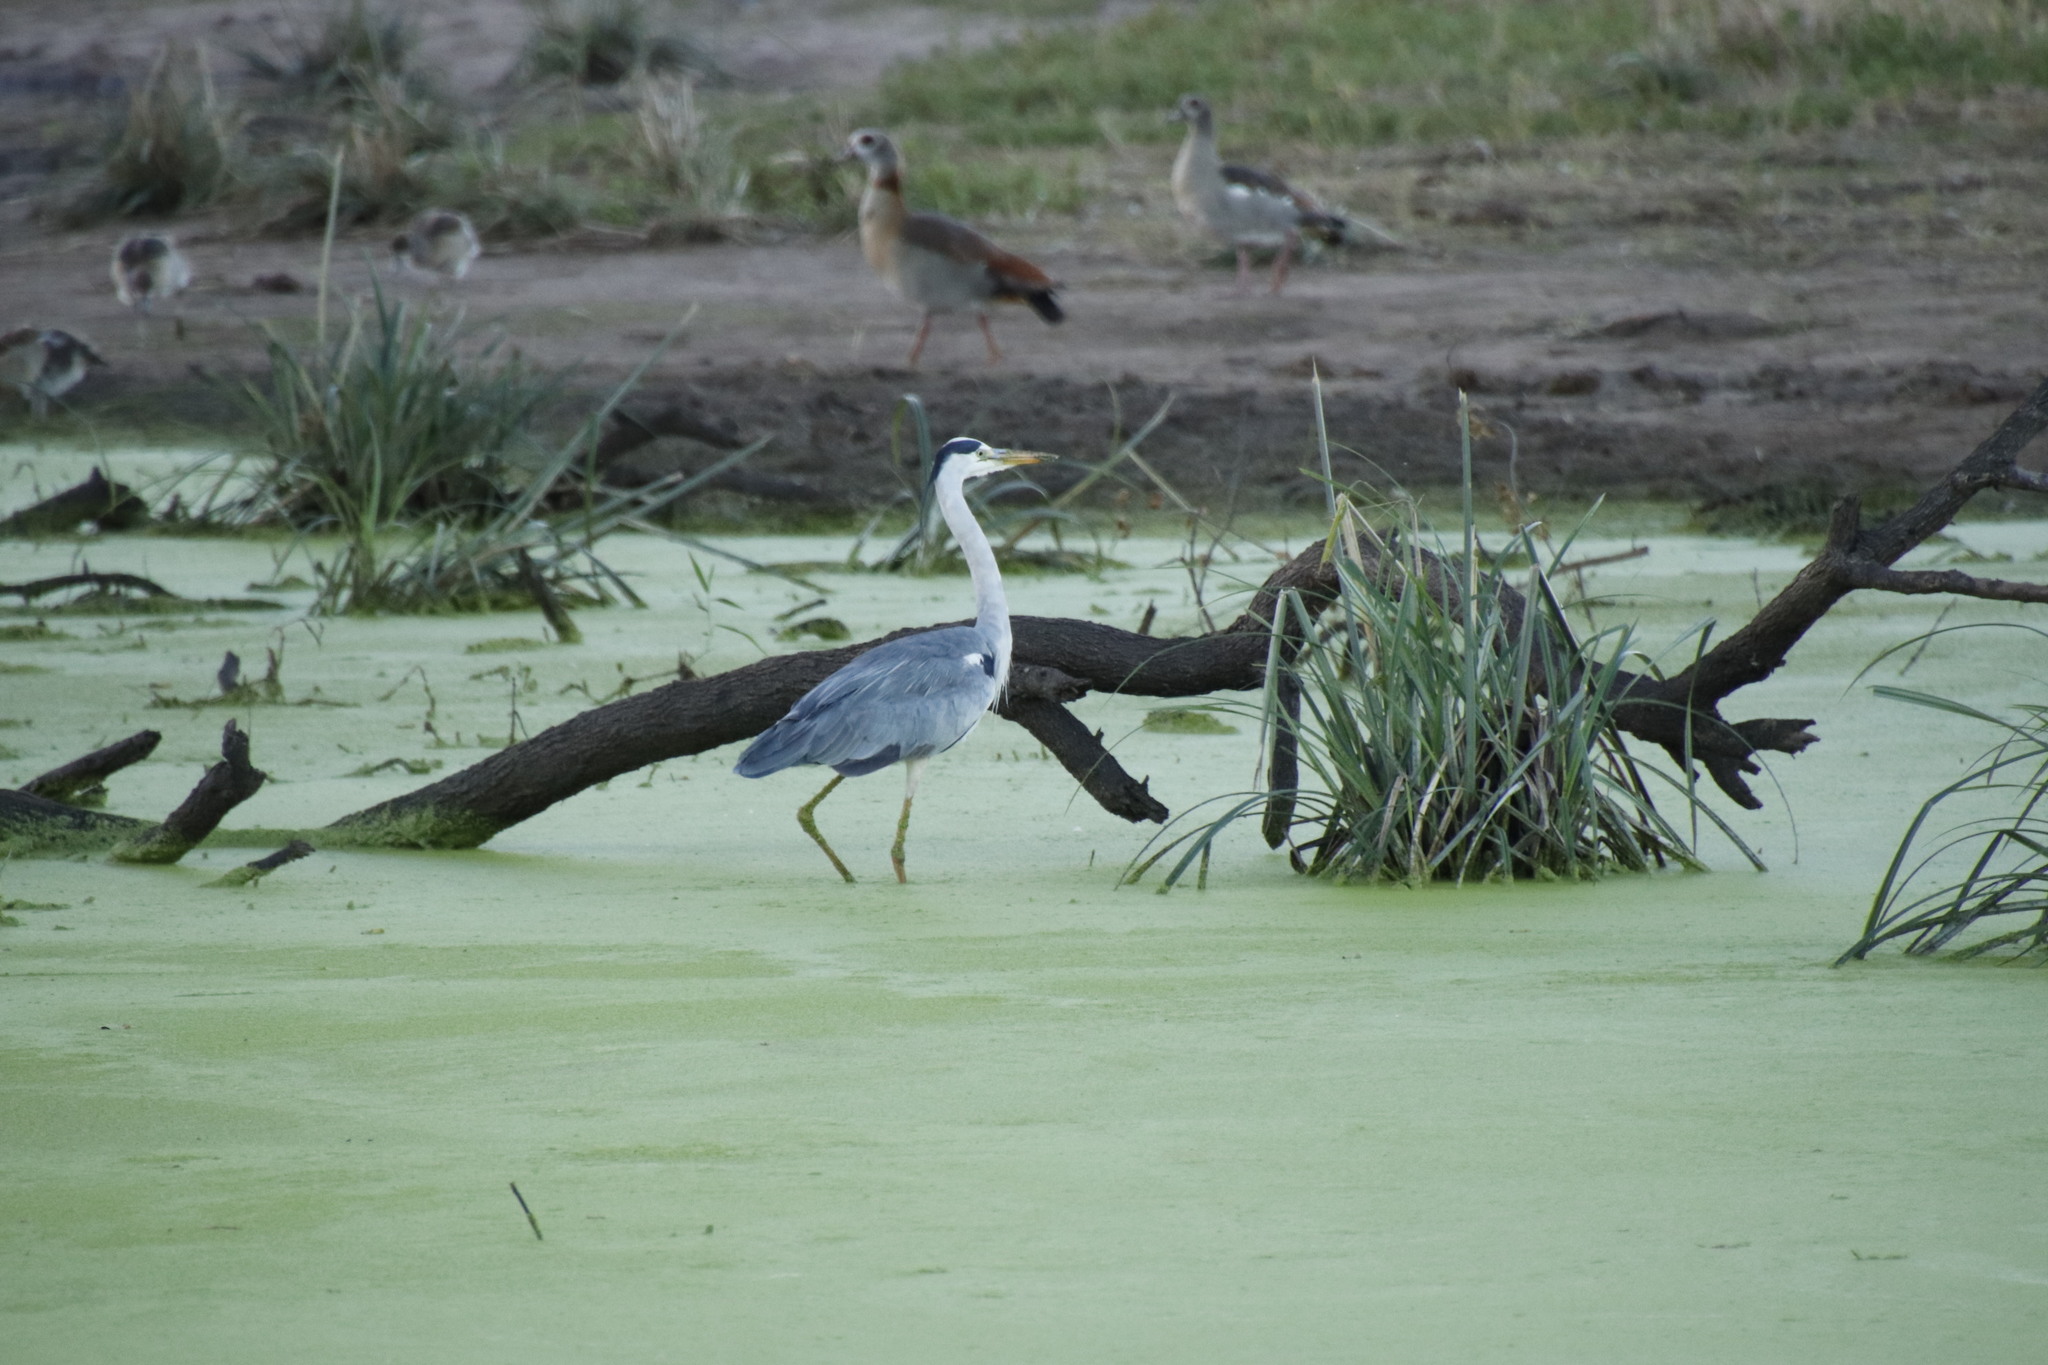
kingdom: Animalia
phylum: Chordata
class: Aves
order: Pelecaniformes
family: Ardeidae
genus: Ardea
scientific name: Ardea cinerea
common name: Grey heron
